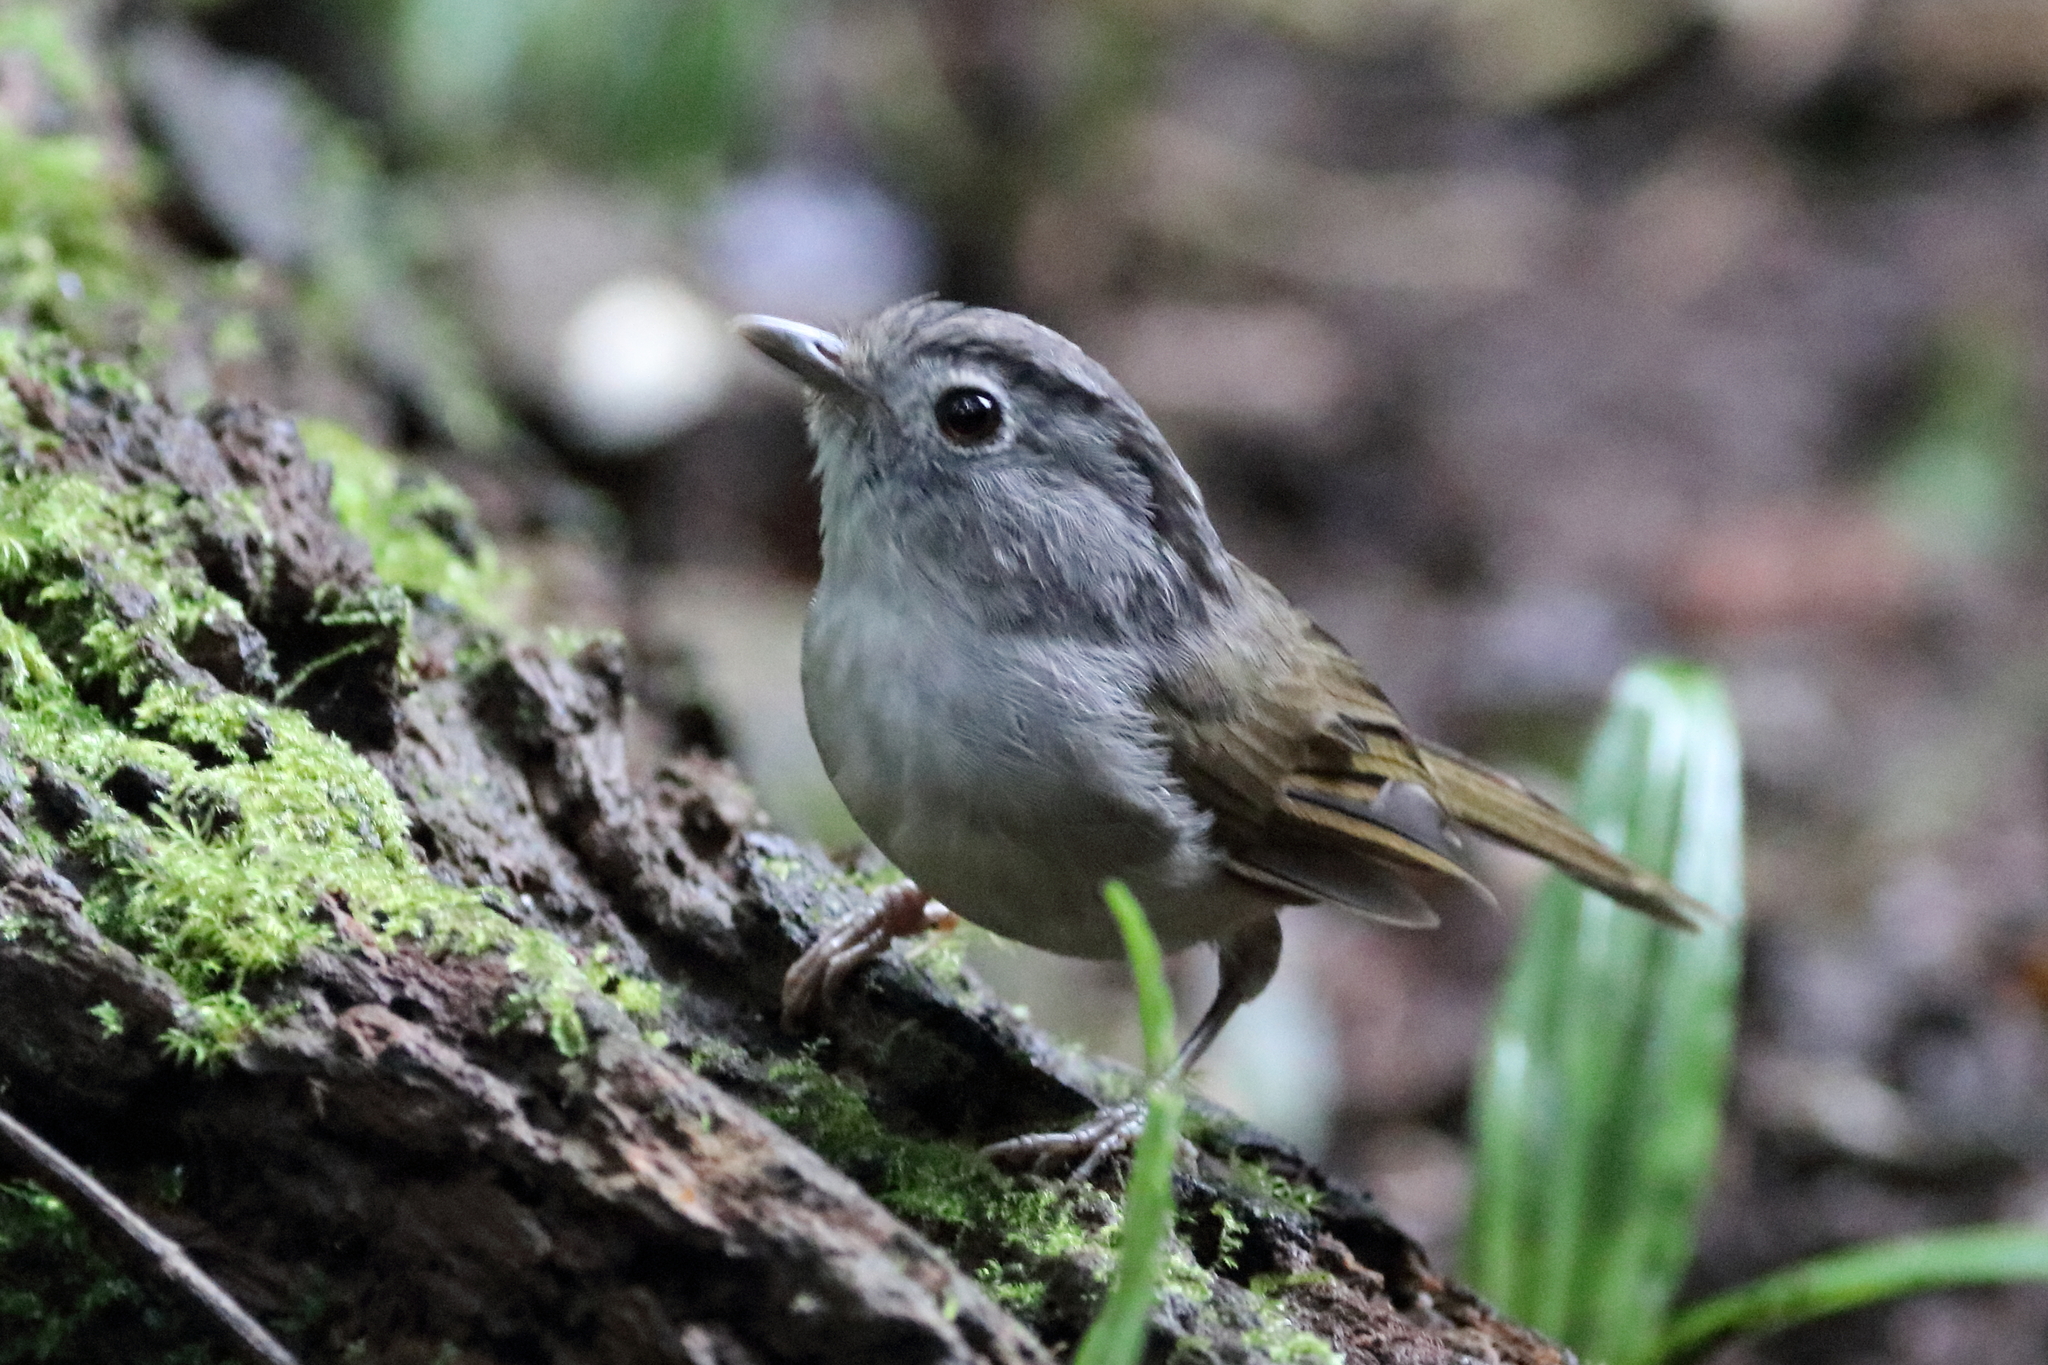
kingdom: Animalia
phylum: Chordata
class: Aves
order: Passeriformes
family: Pellorneidae
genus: Alcippe
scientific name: Alcippe peracensis
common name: Mountain fulvetta
